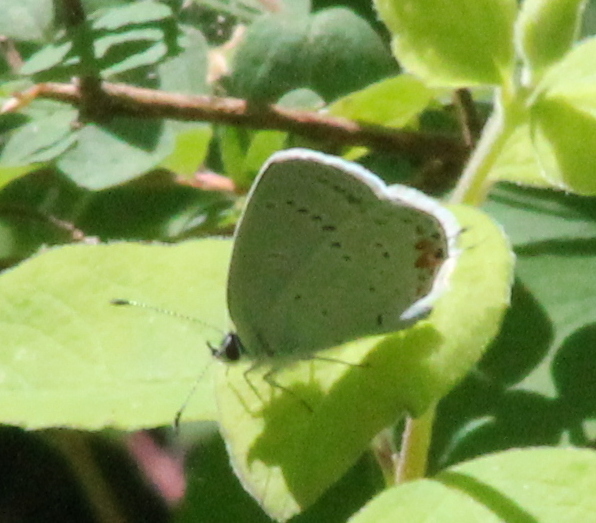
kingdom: Animalia
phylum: Arthropoda
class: Insecta
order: Lepidoptera
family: Lycaenidae
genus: Elkalyce
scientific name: Elkalyce comyntas
